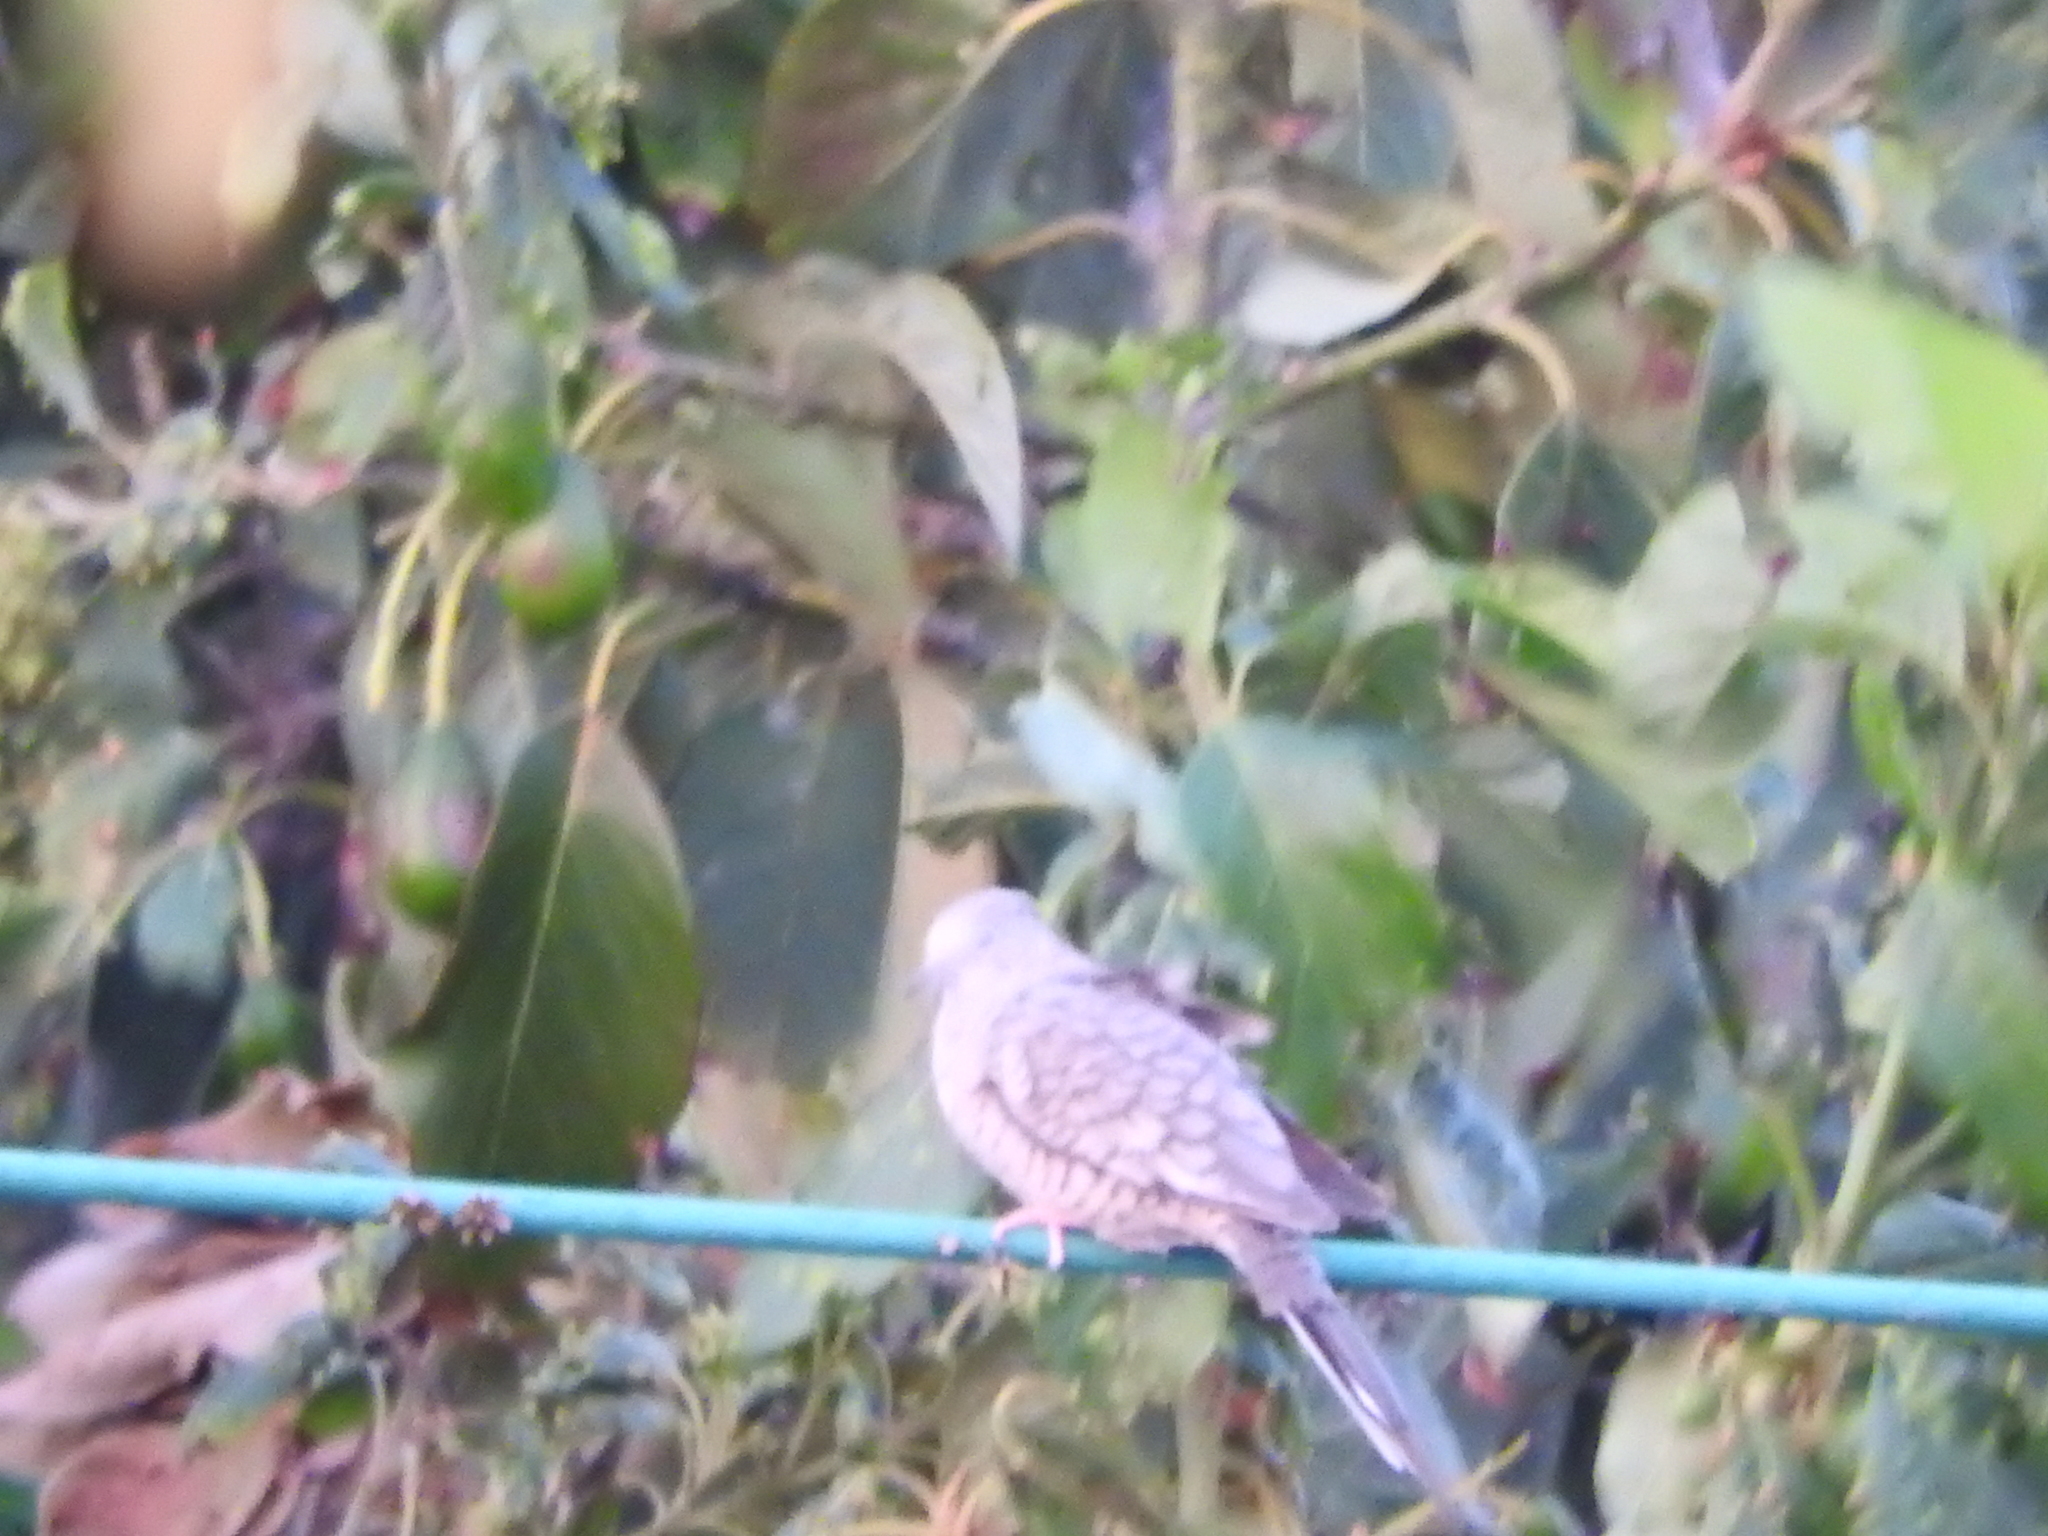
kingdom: Animalia
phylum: Chordata
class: Aves
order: Columbiformes
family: Columbidae
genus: Columbina
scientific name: Columbina inca
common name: Inca dove
